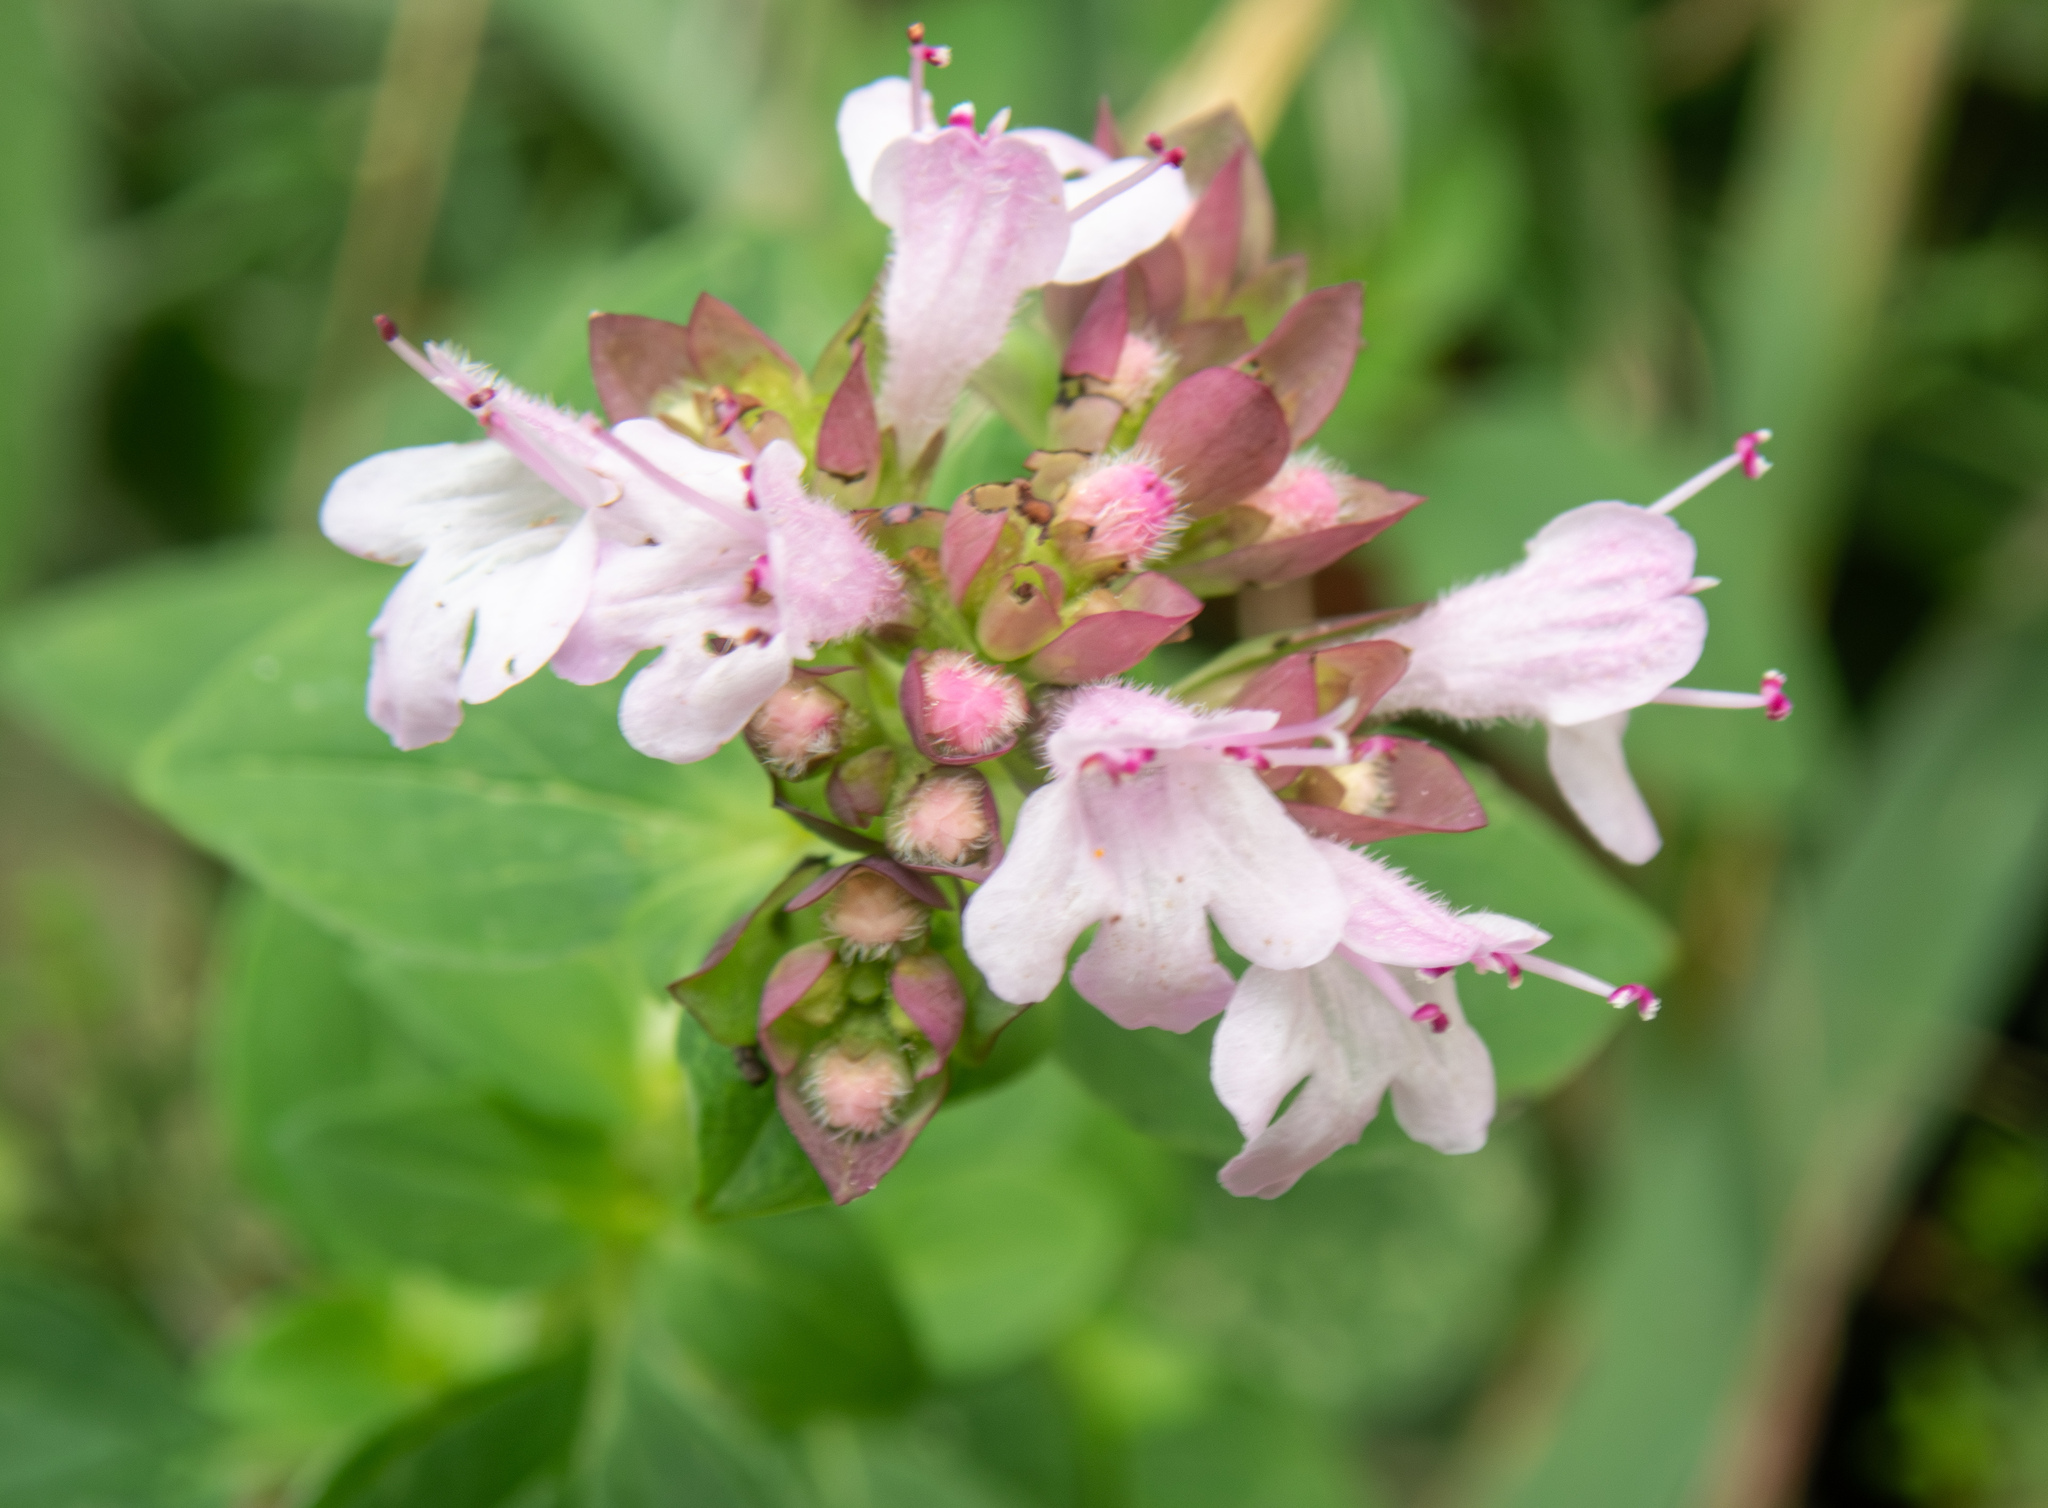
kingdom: Plantae
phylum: Tracheophyta
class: Magnoliopsida
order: Lamiales
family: Lamiaceae
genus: Origanum
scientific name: Origanum vulgare
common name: Wild marjoram
